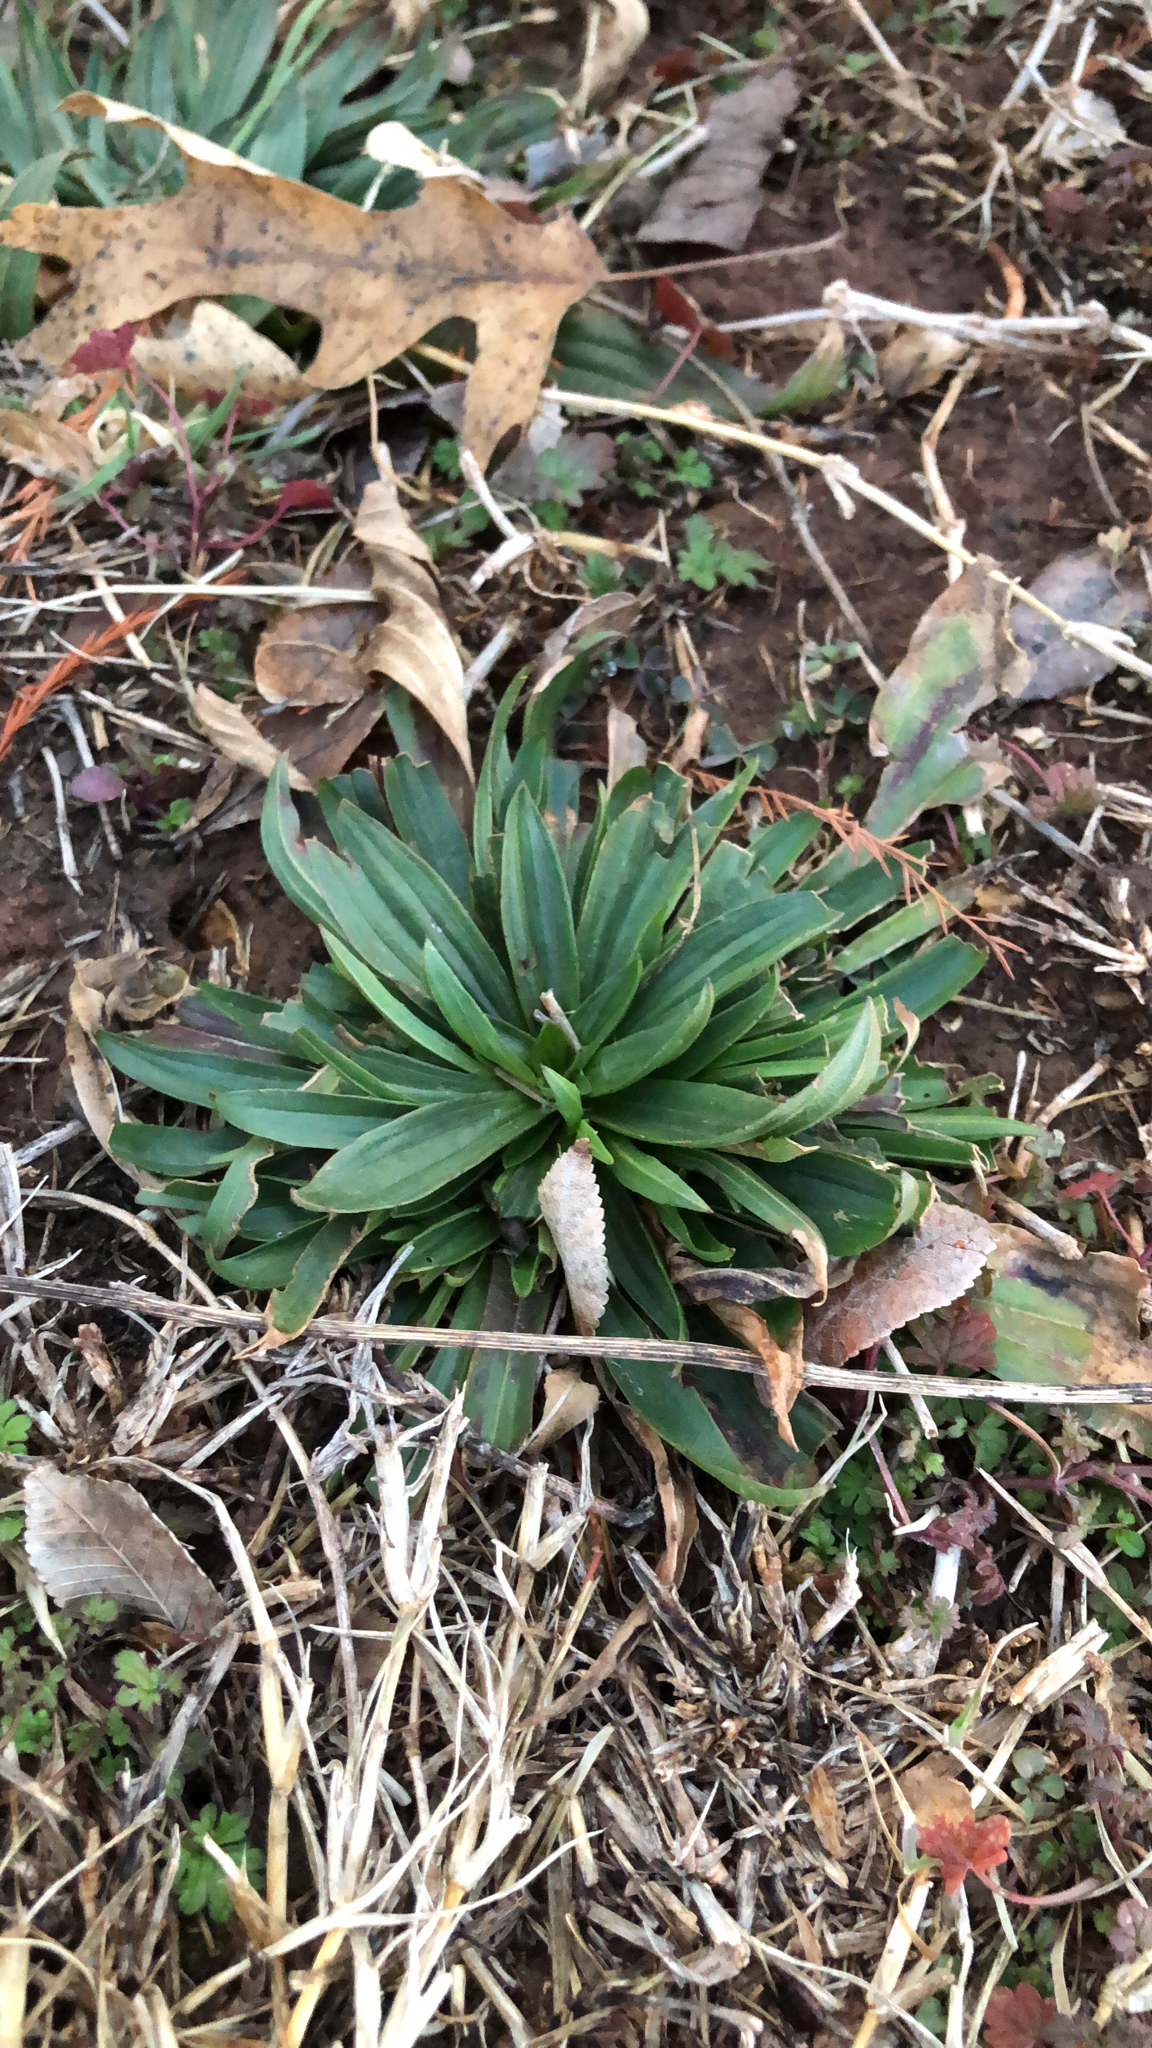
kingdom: Plantae
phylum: Tracheophyta
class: Magnoliopsida
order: Lamiales
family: Plantaginaceae
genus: Plantago
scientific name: Plantago lanceolata
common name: Ribwort plantain
